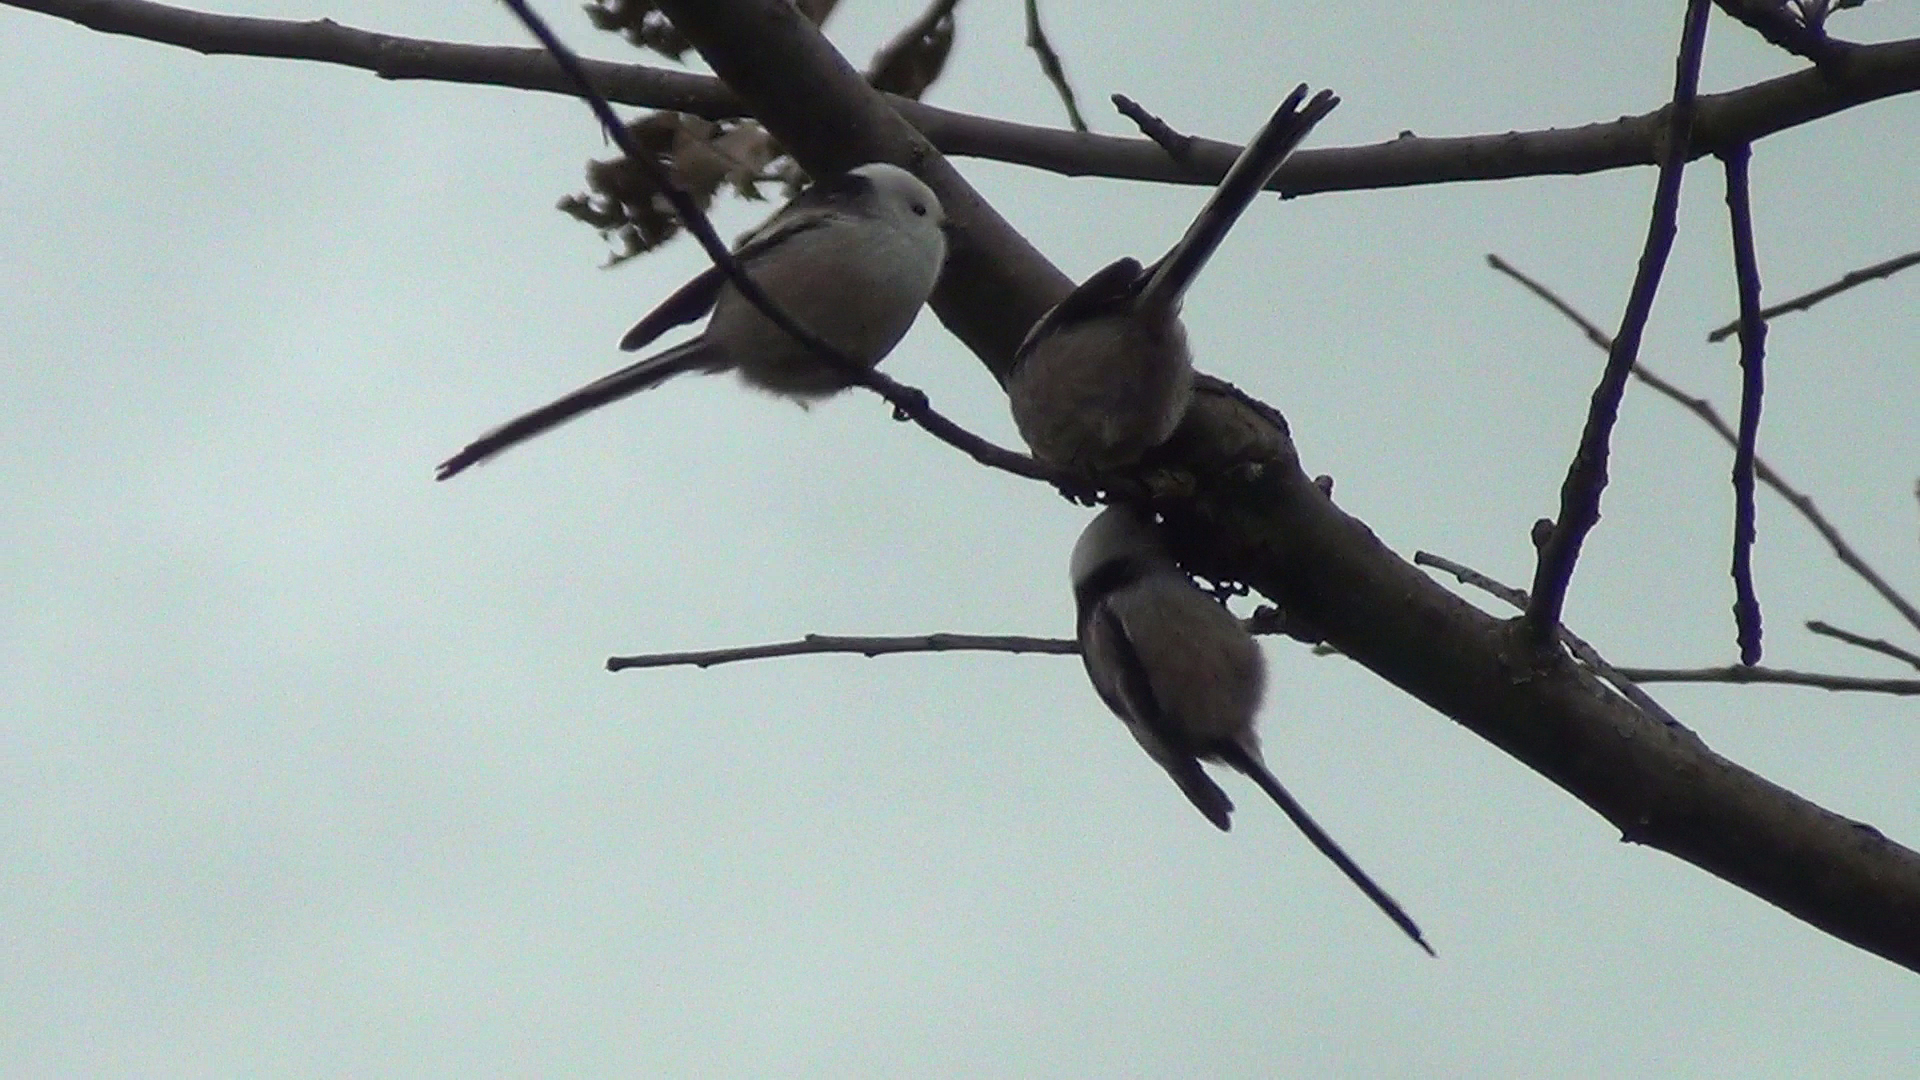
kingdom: Animalia
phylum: Chordata
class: Aves
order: Passeriformes
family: Aegithalidae
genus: Aegithalos
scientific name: Aegithalos caudatus
